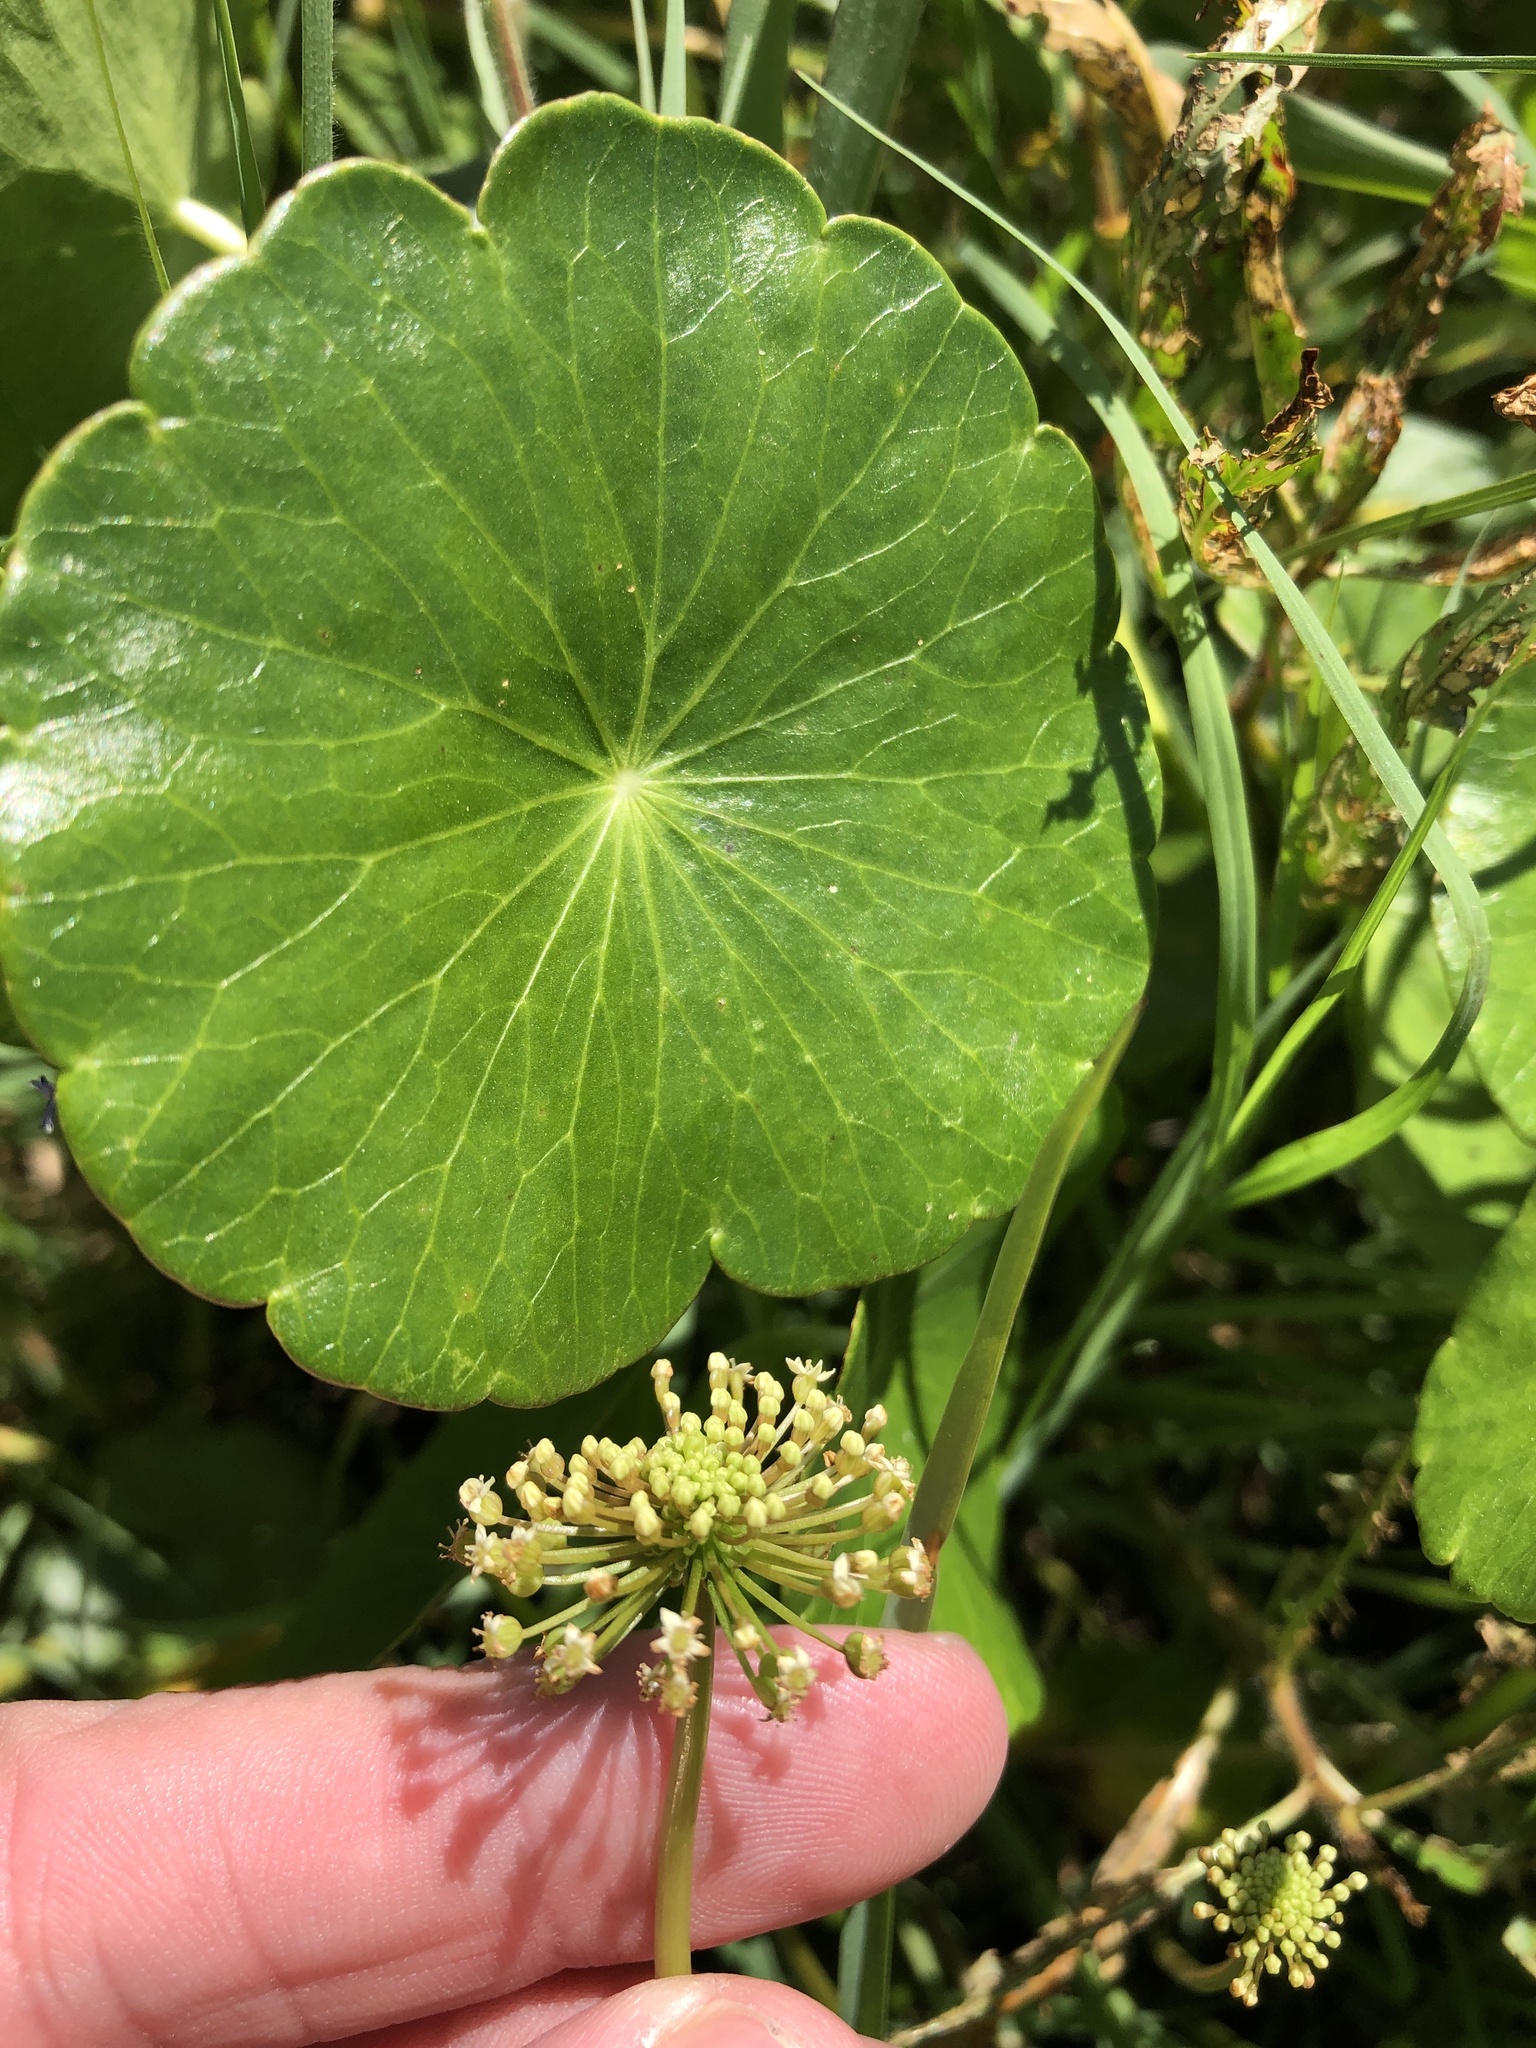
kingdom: Plantae
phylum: Tracheophyta
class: Magnoliopsida
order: Apiales
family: Araliaceae
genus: Hydrocotyle
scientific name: Hydrocotyle umbellata
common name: Water pennywort
